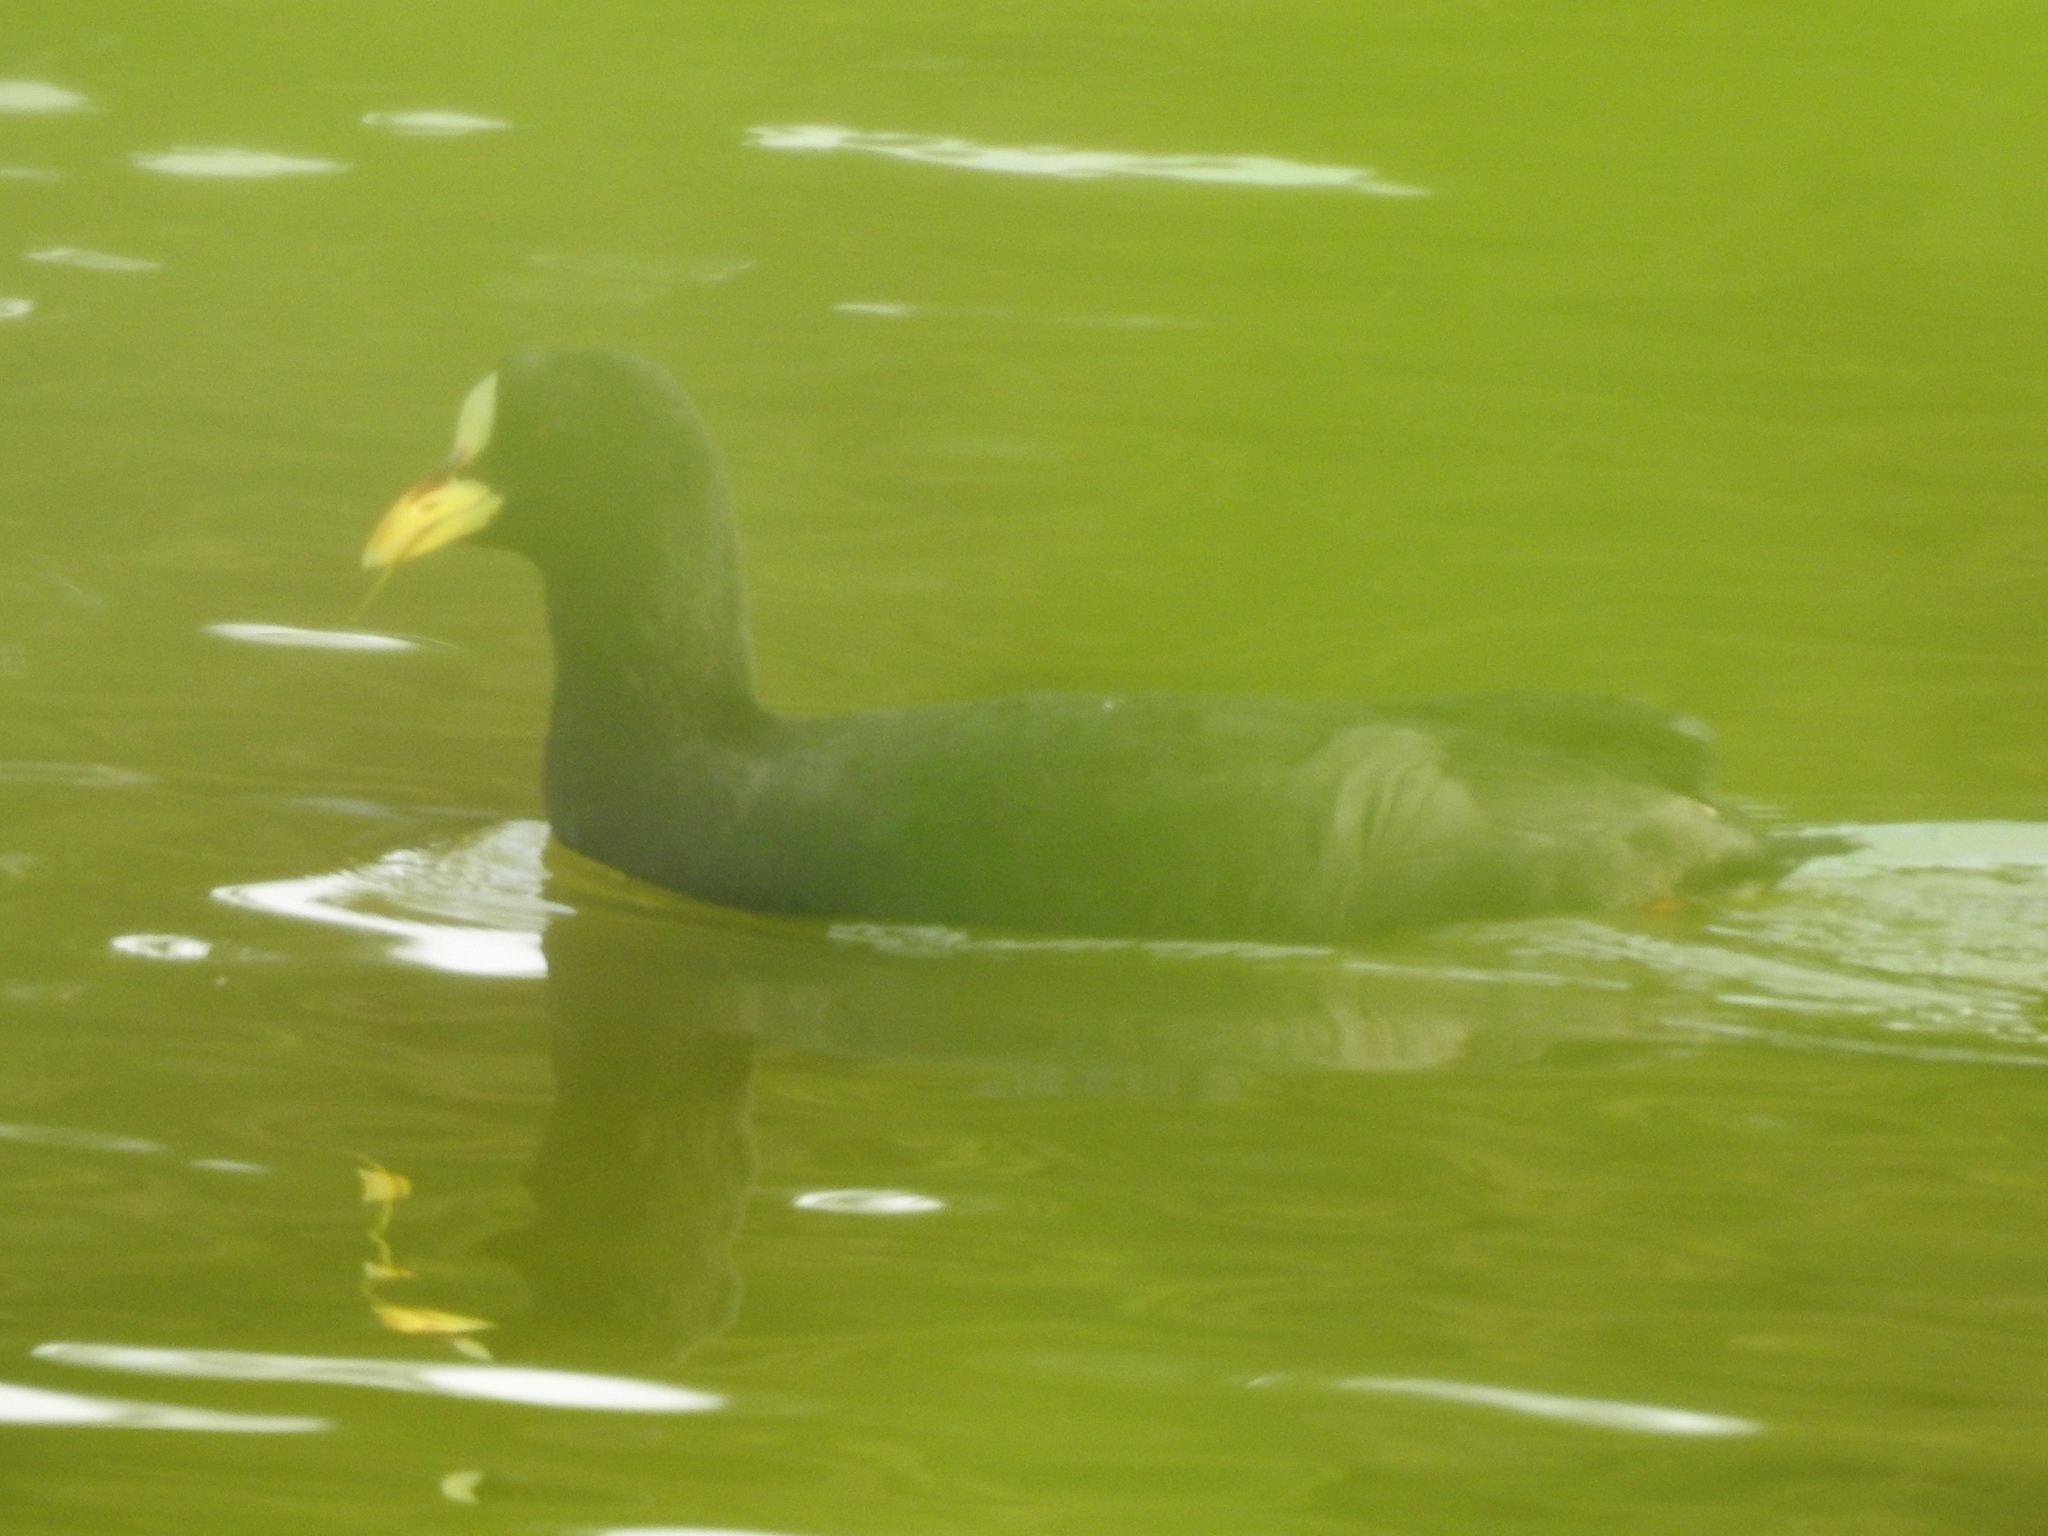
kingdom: Animalia
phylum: Chordata
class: Aves
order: Gruiformes
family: Rallidae
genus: Fulica
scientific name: Fulica armillata
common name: Red-gartered coot
